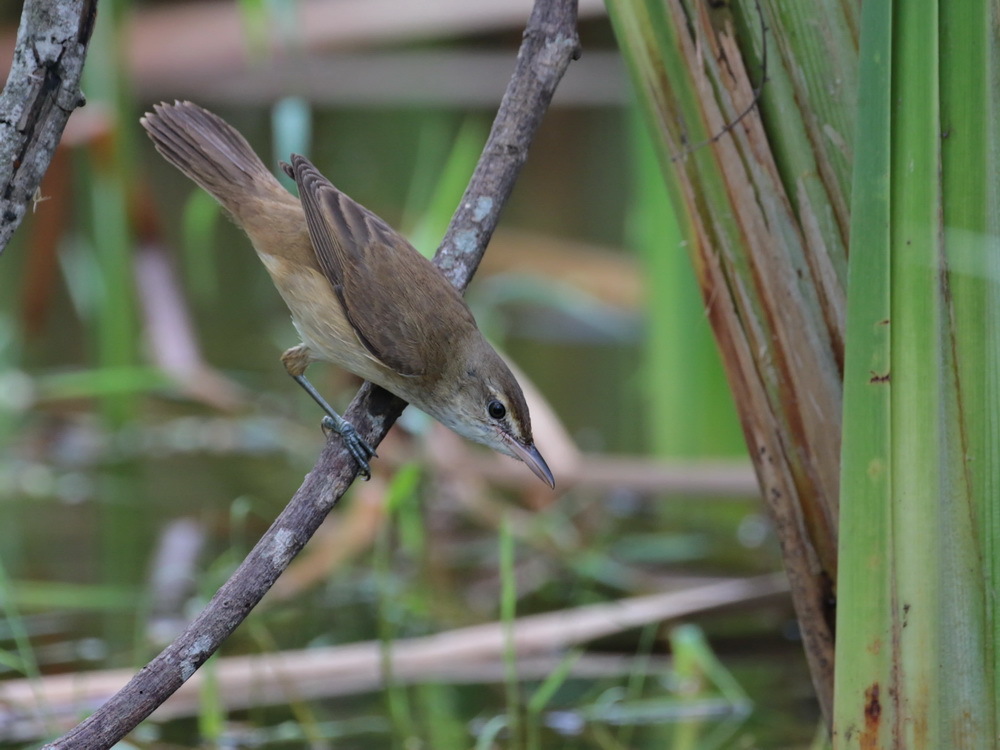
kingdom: Animalia
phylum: Chordata
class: Aves
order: Passeriformes
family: Acrocephalidae
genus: Acrocephalus
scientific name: Acrocephalus orientalis
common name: Oriental reed warbler
